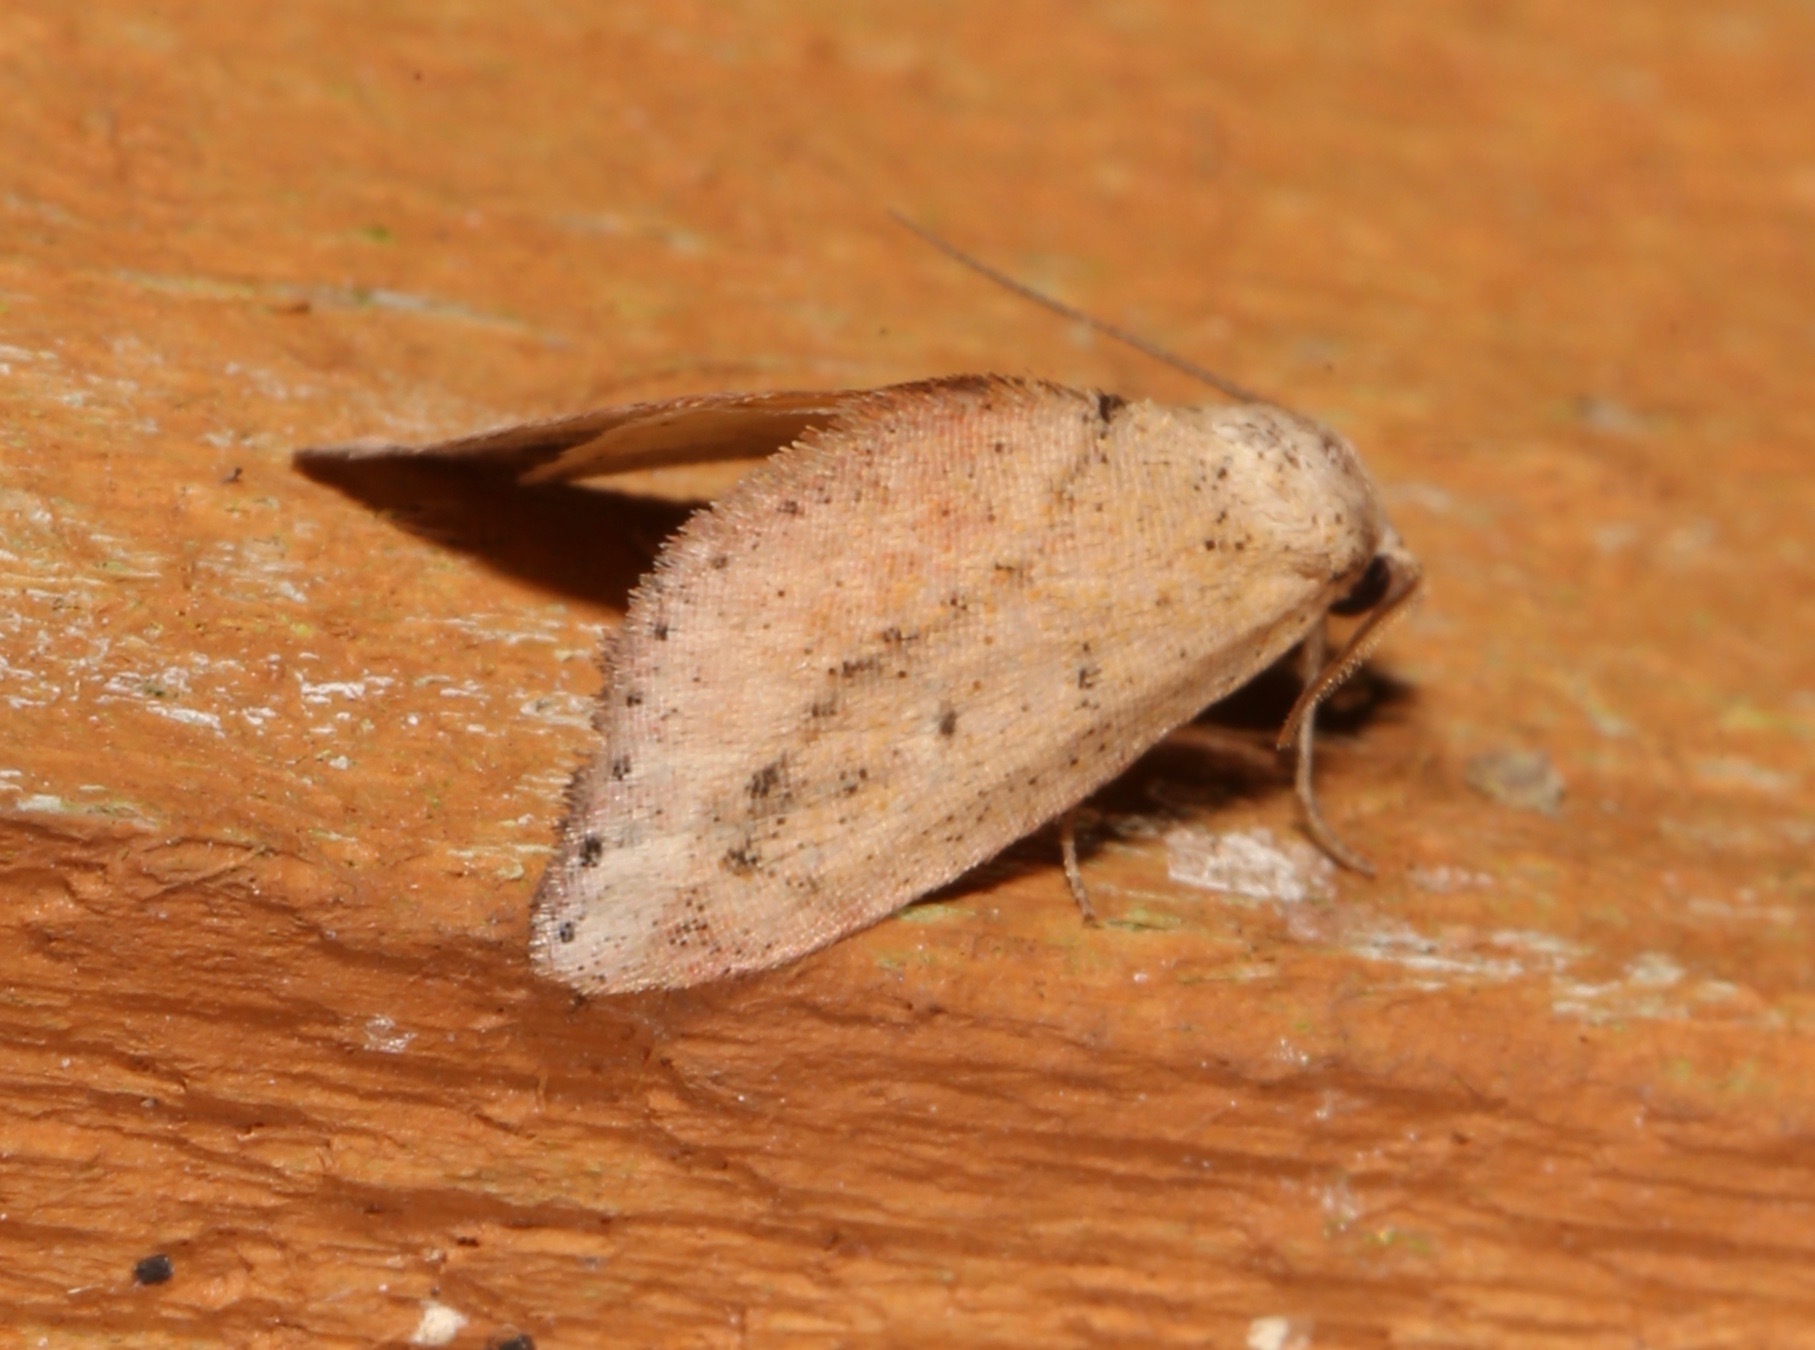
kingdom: Animalia
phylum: Arthropoda
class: Insecta
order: Lepidoptera
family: Noctuidae
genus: Proroblemma
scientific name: Proroblemma testa
